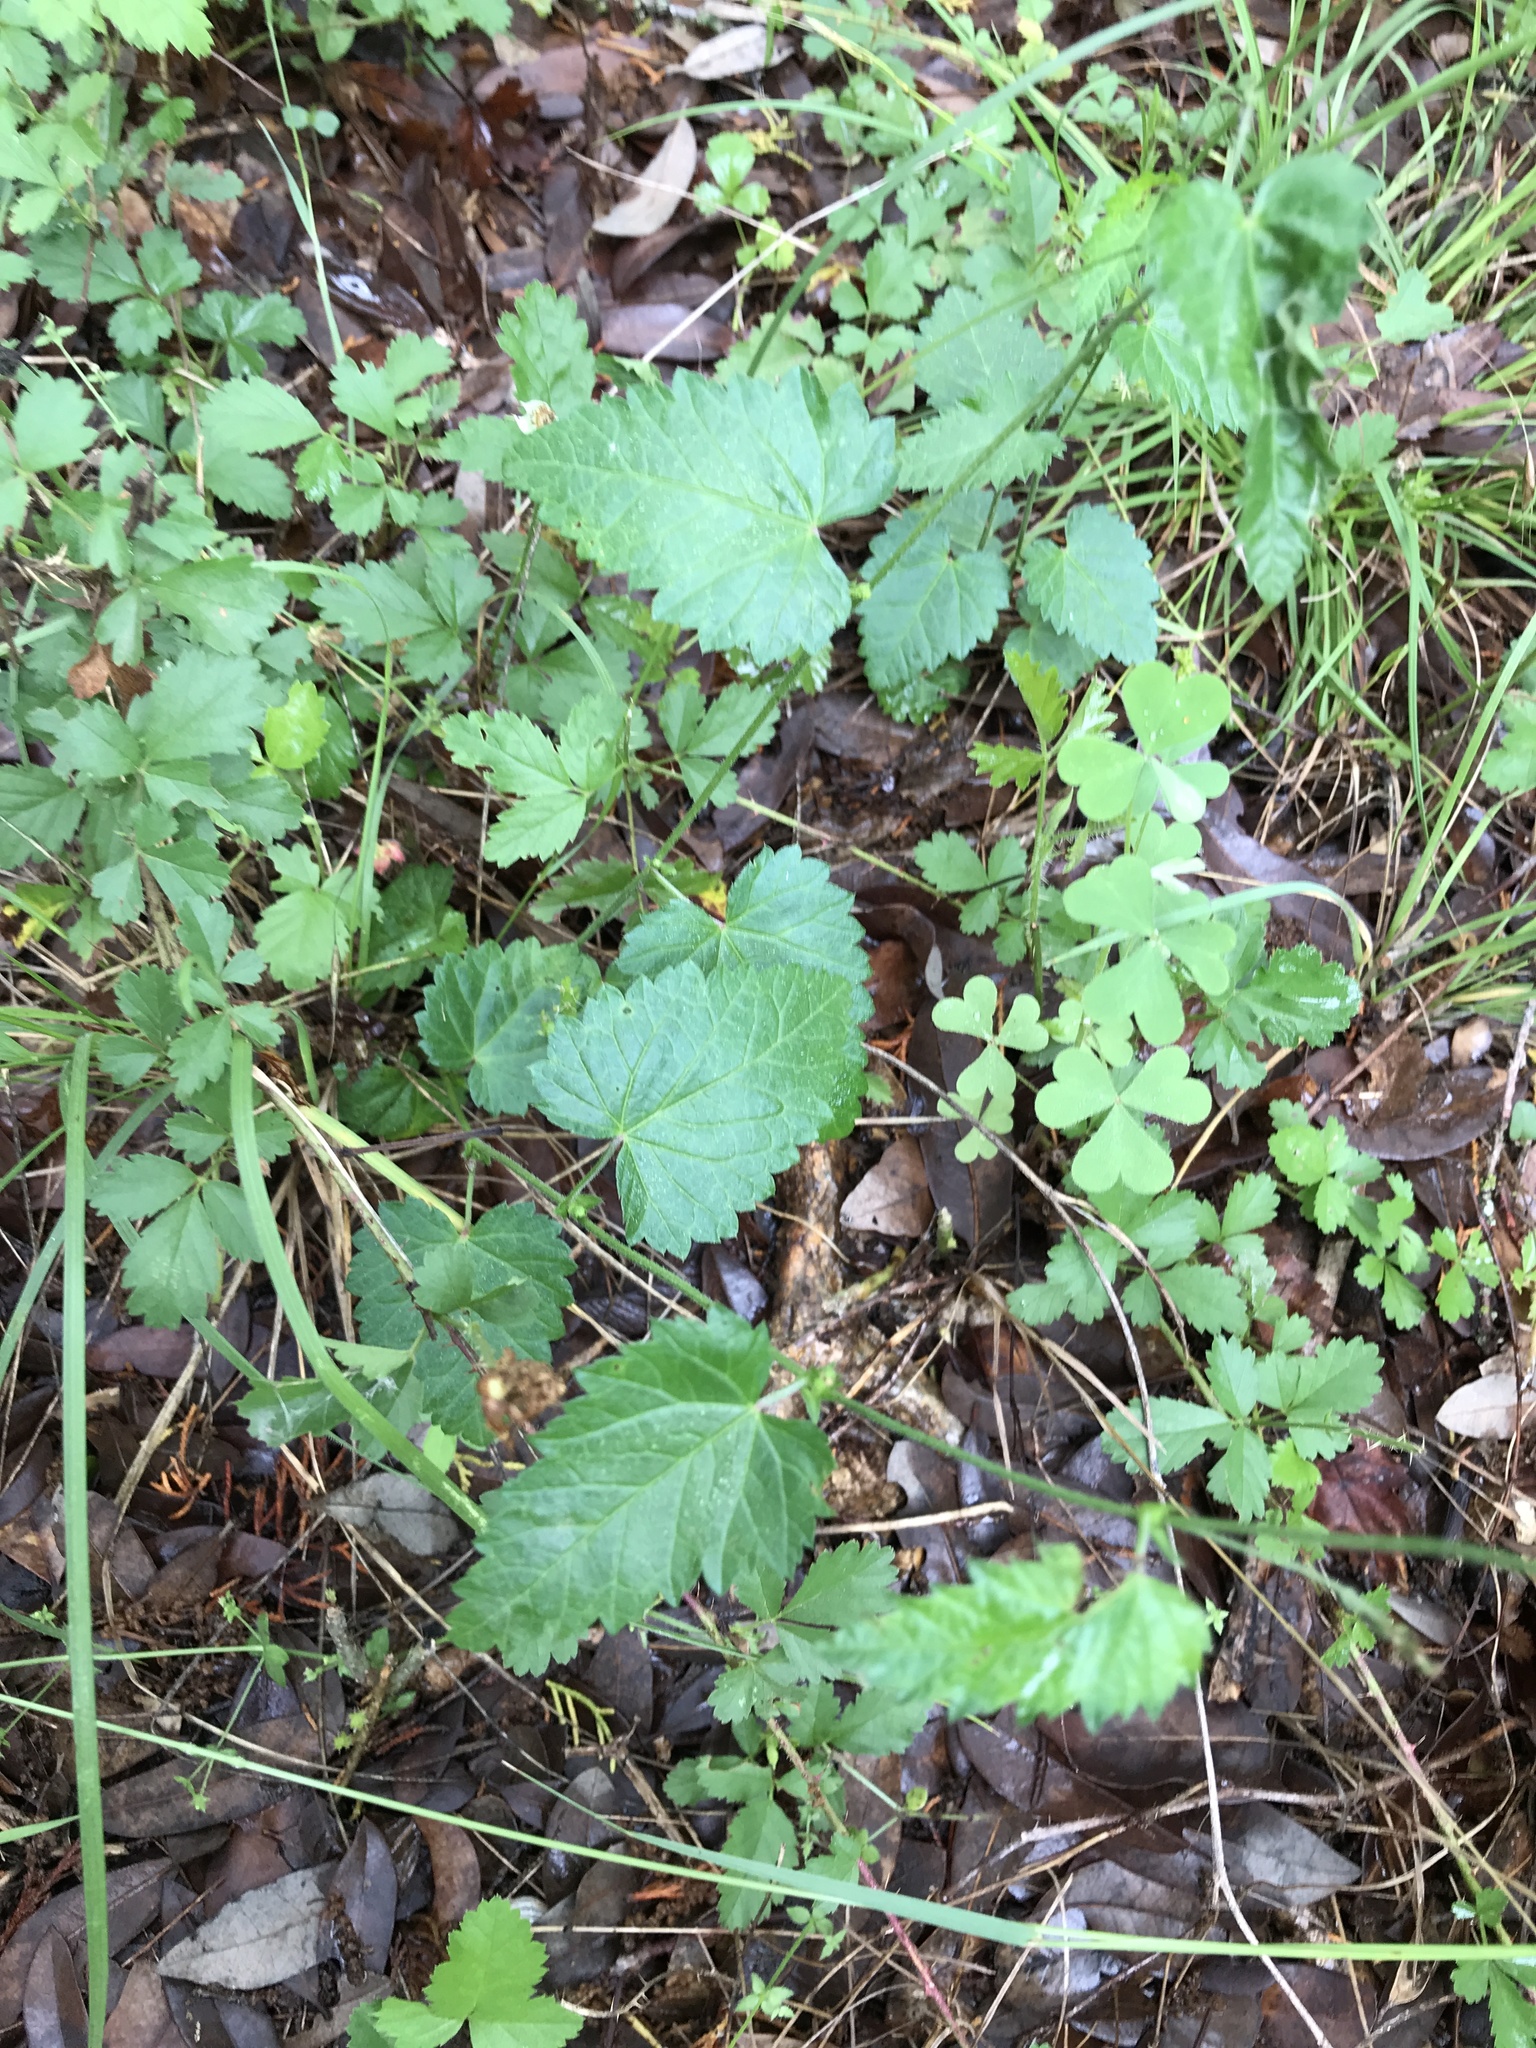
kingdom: Plantae
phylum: Tracheophyta
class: Magnoliopsida
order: Malpighiales
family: Euphorbiaceae
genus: Tragia
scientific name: Tragia urticifolia
